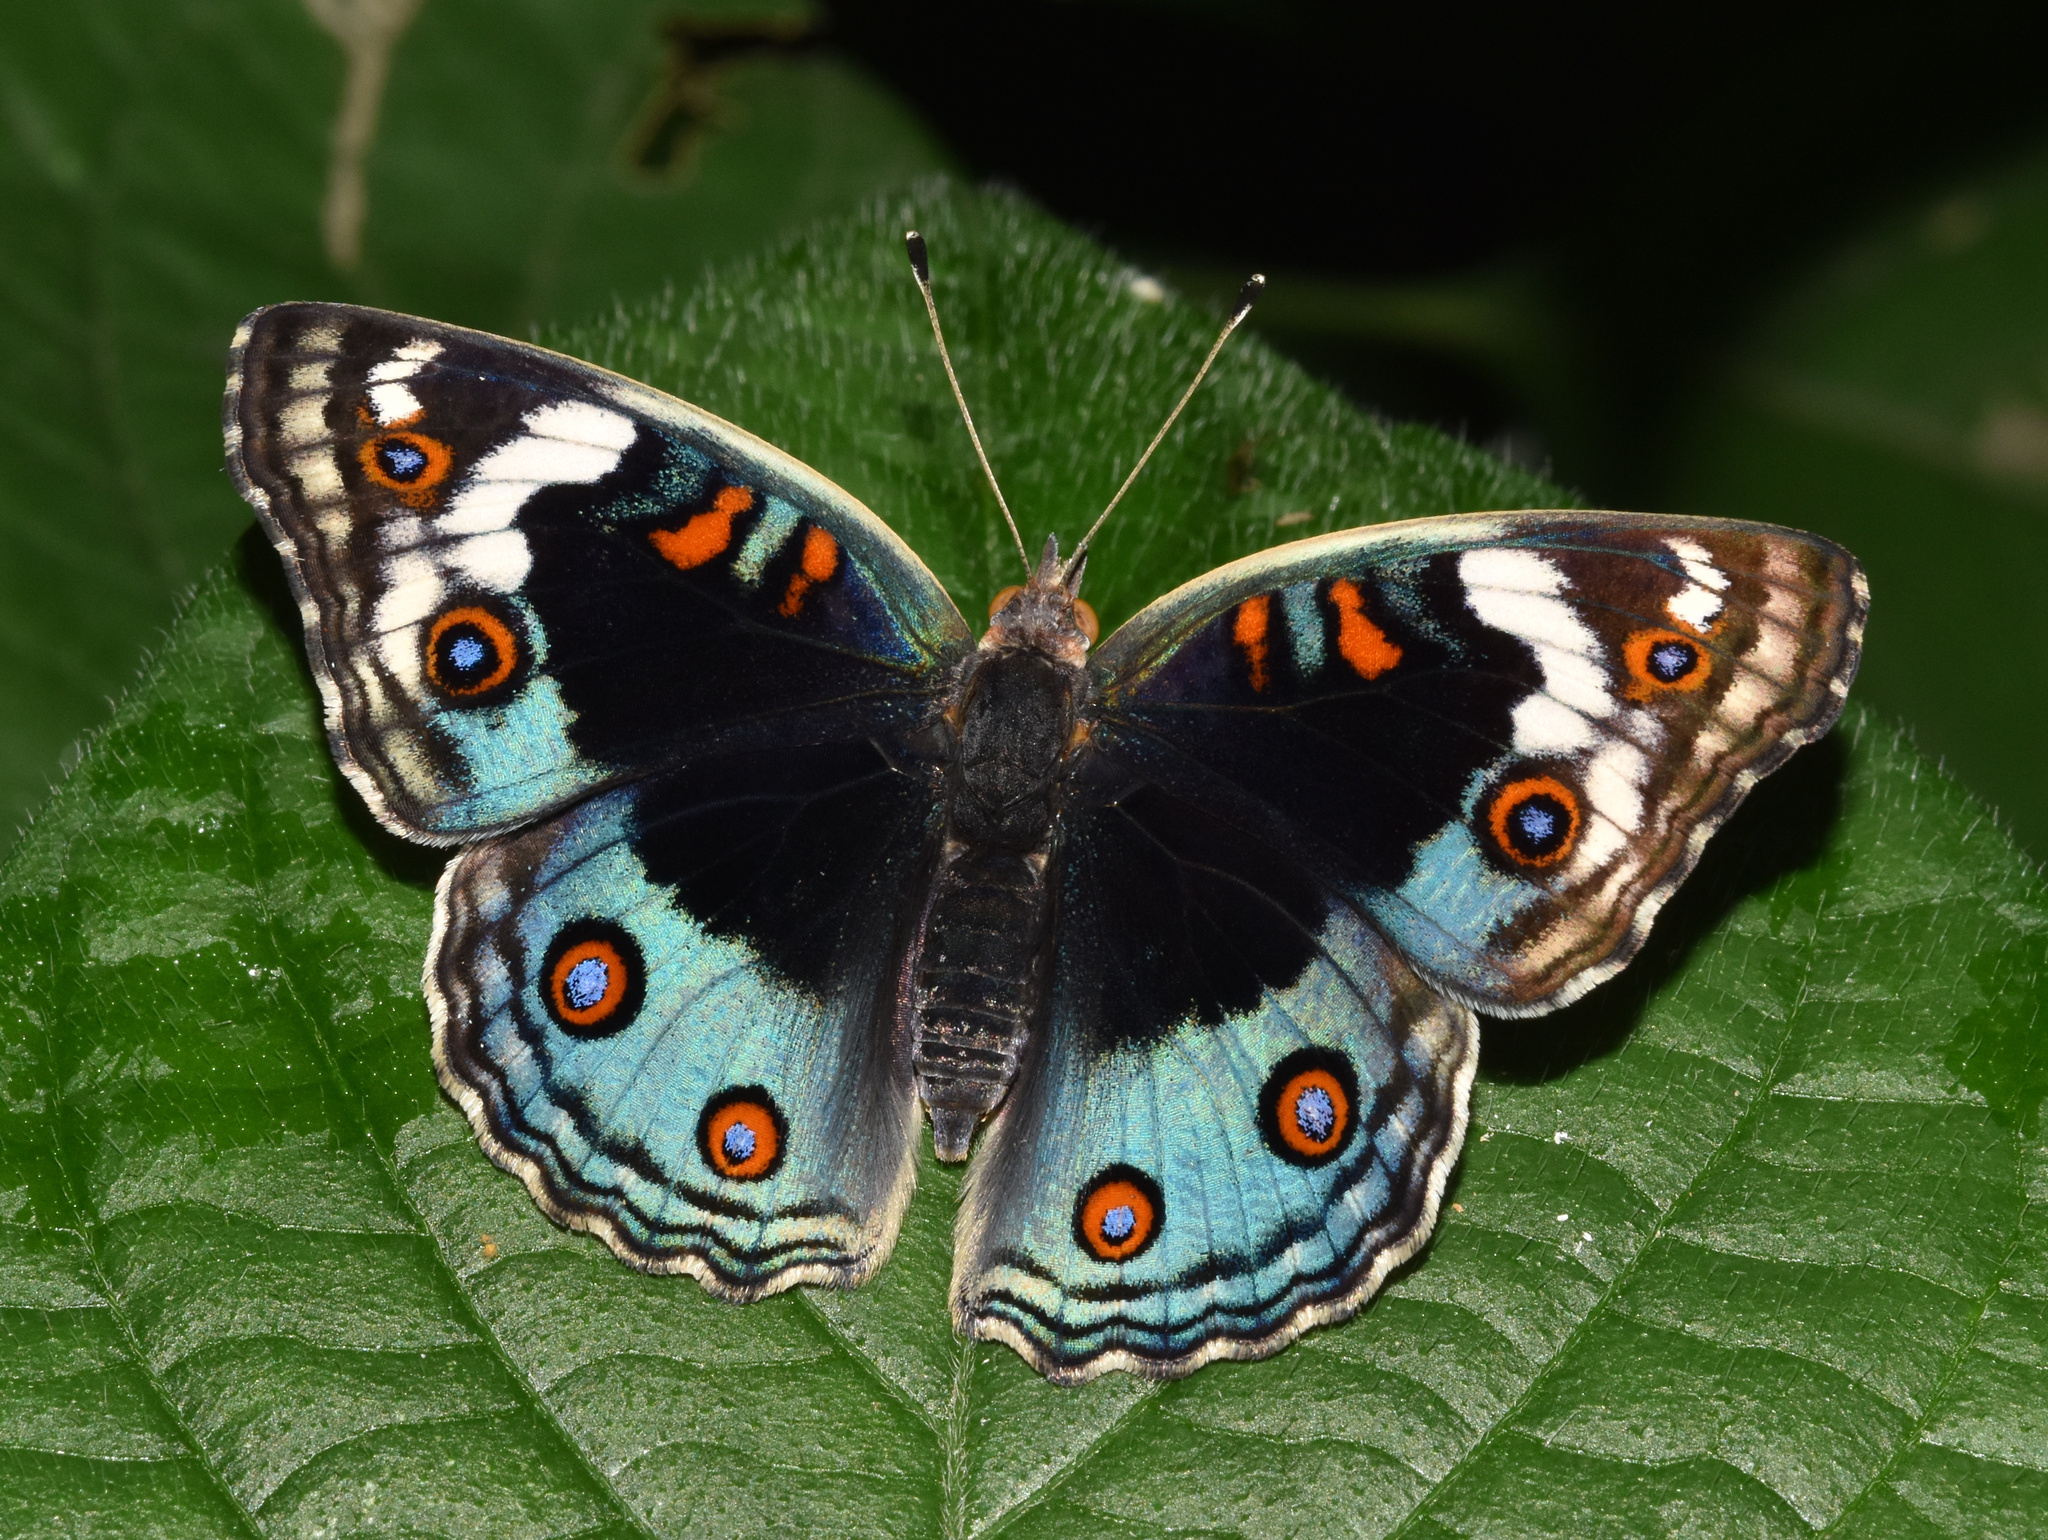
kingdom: Animalia
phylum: Arthropoda
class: Insecta
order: Lepidoptera
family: Nymphalidae
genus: Junonia
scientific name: Junonia orithya
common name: Blue pansy
